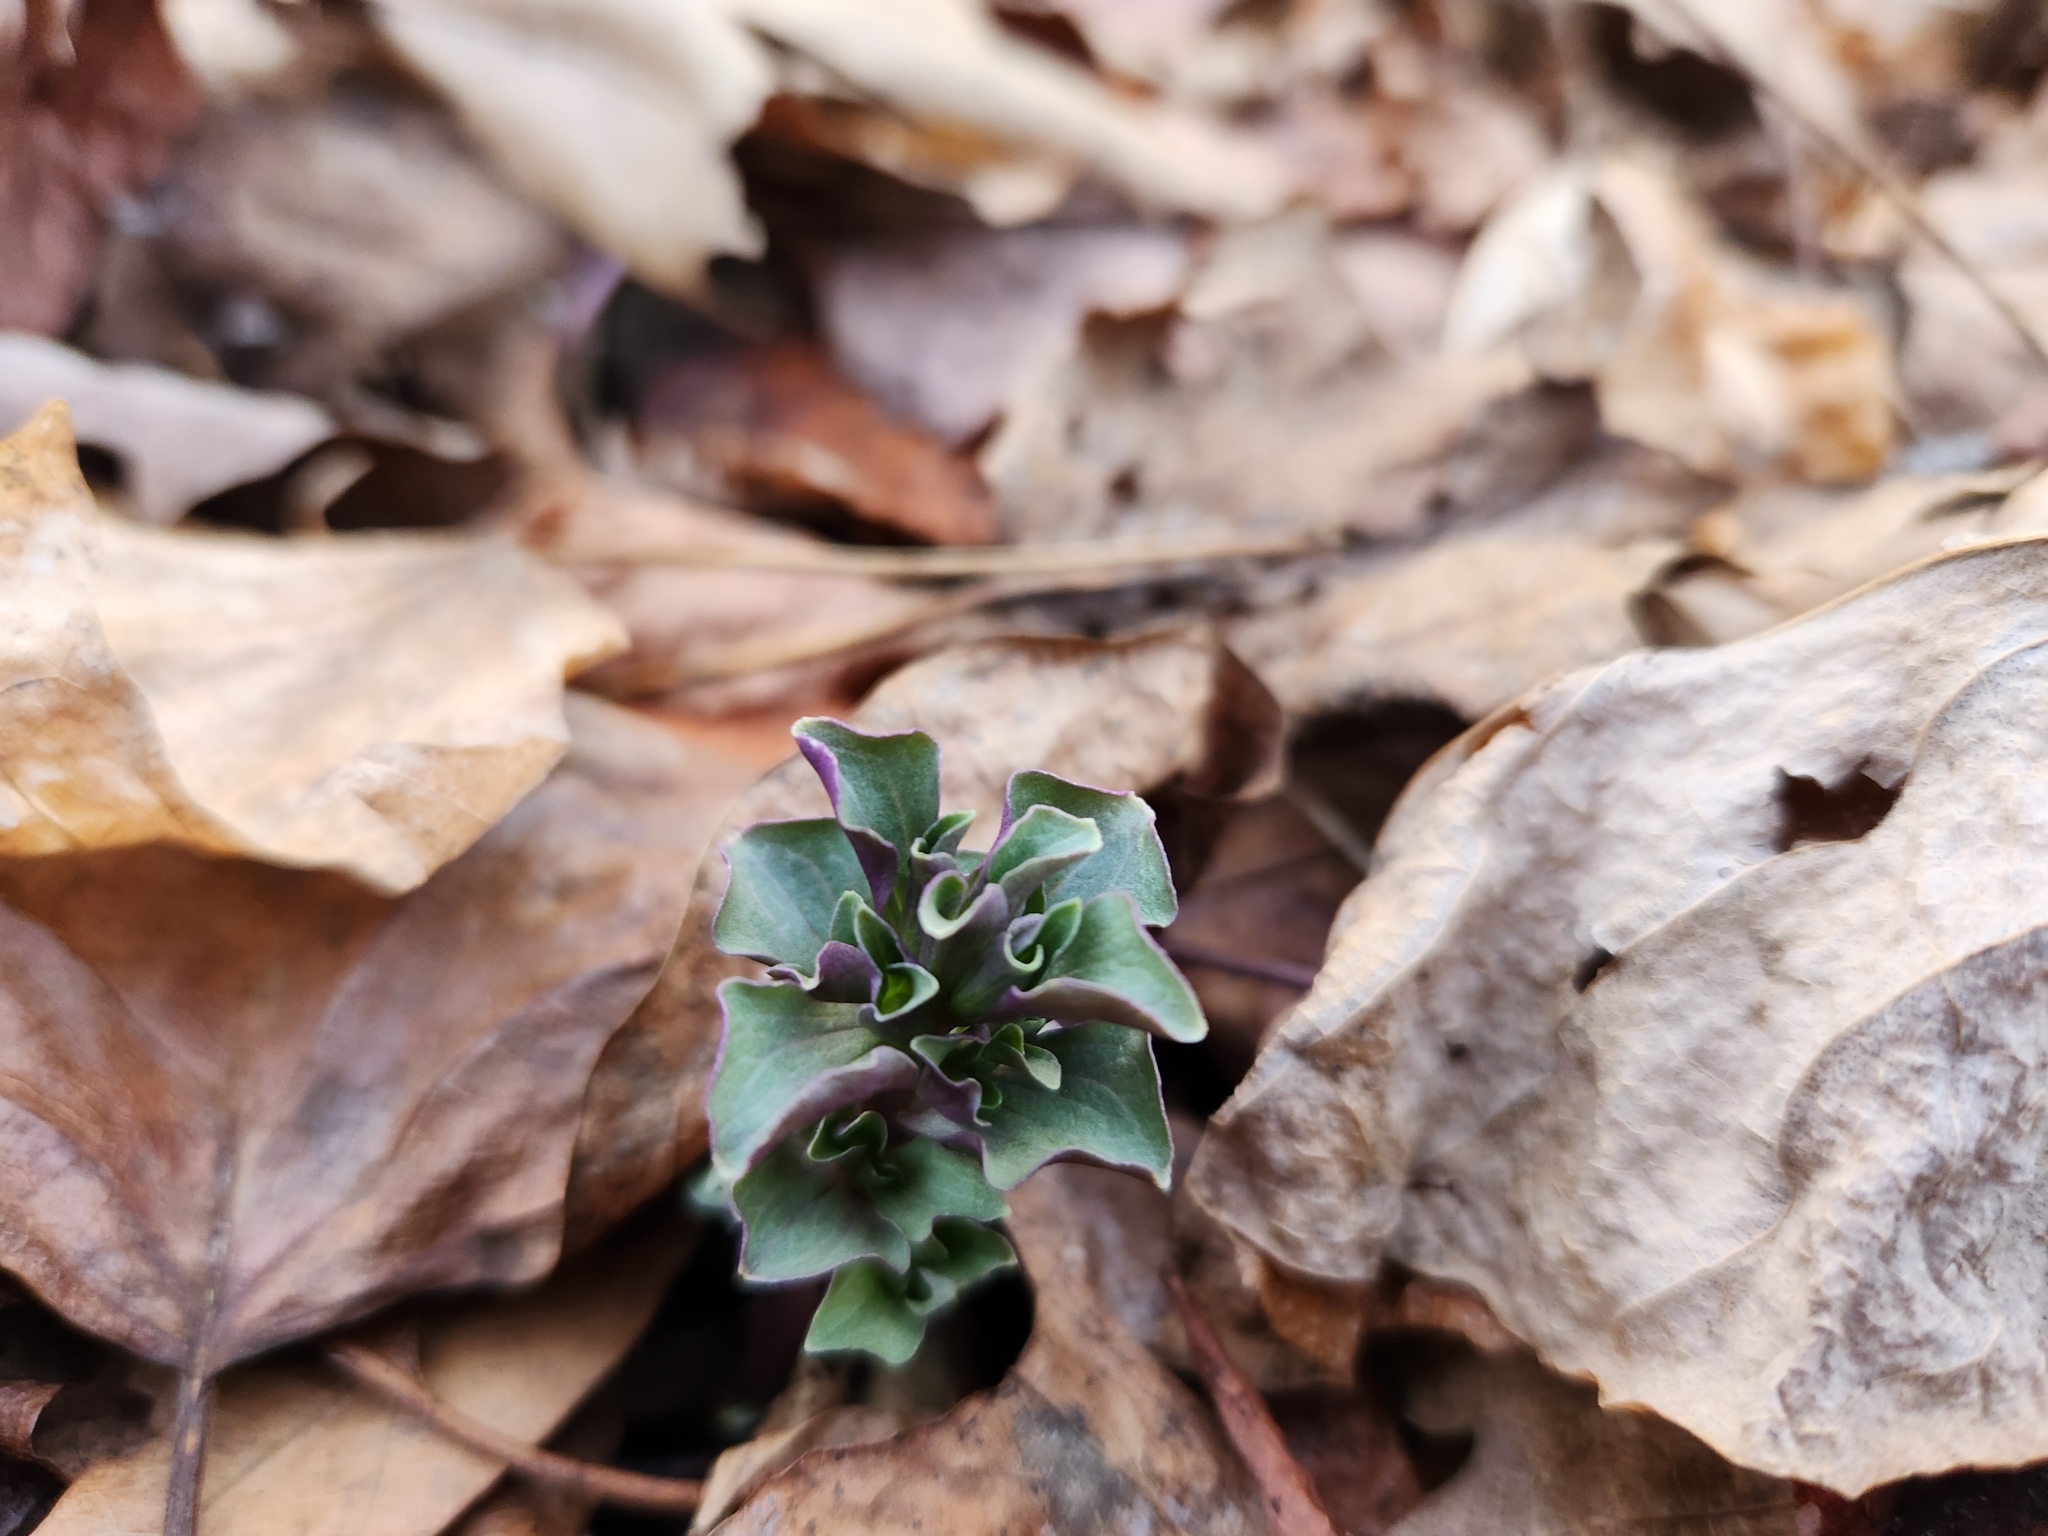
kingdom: Plantae
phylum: Tracheophyta
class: Magnoliopsida
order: Gentianales
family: Gentianaceae
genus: Obolaria
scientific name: Obolaria virginica
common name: Pennywort
